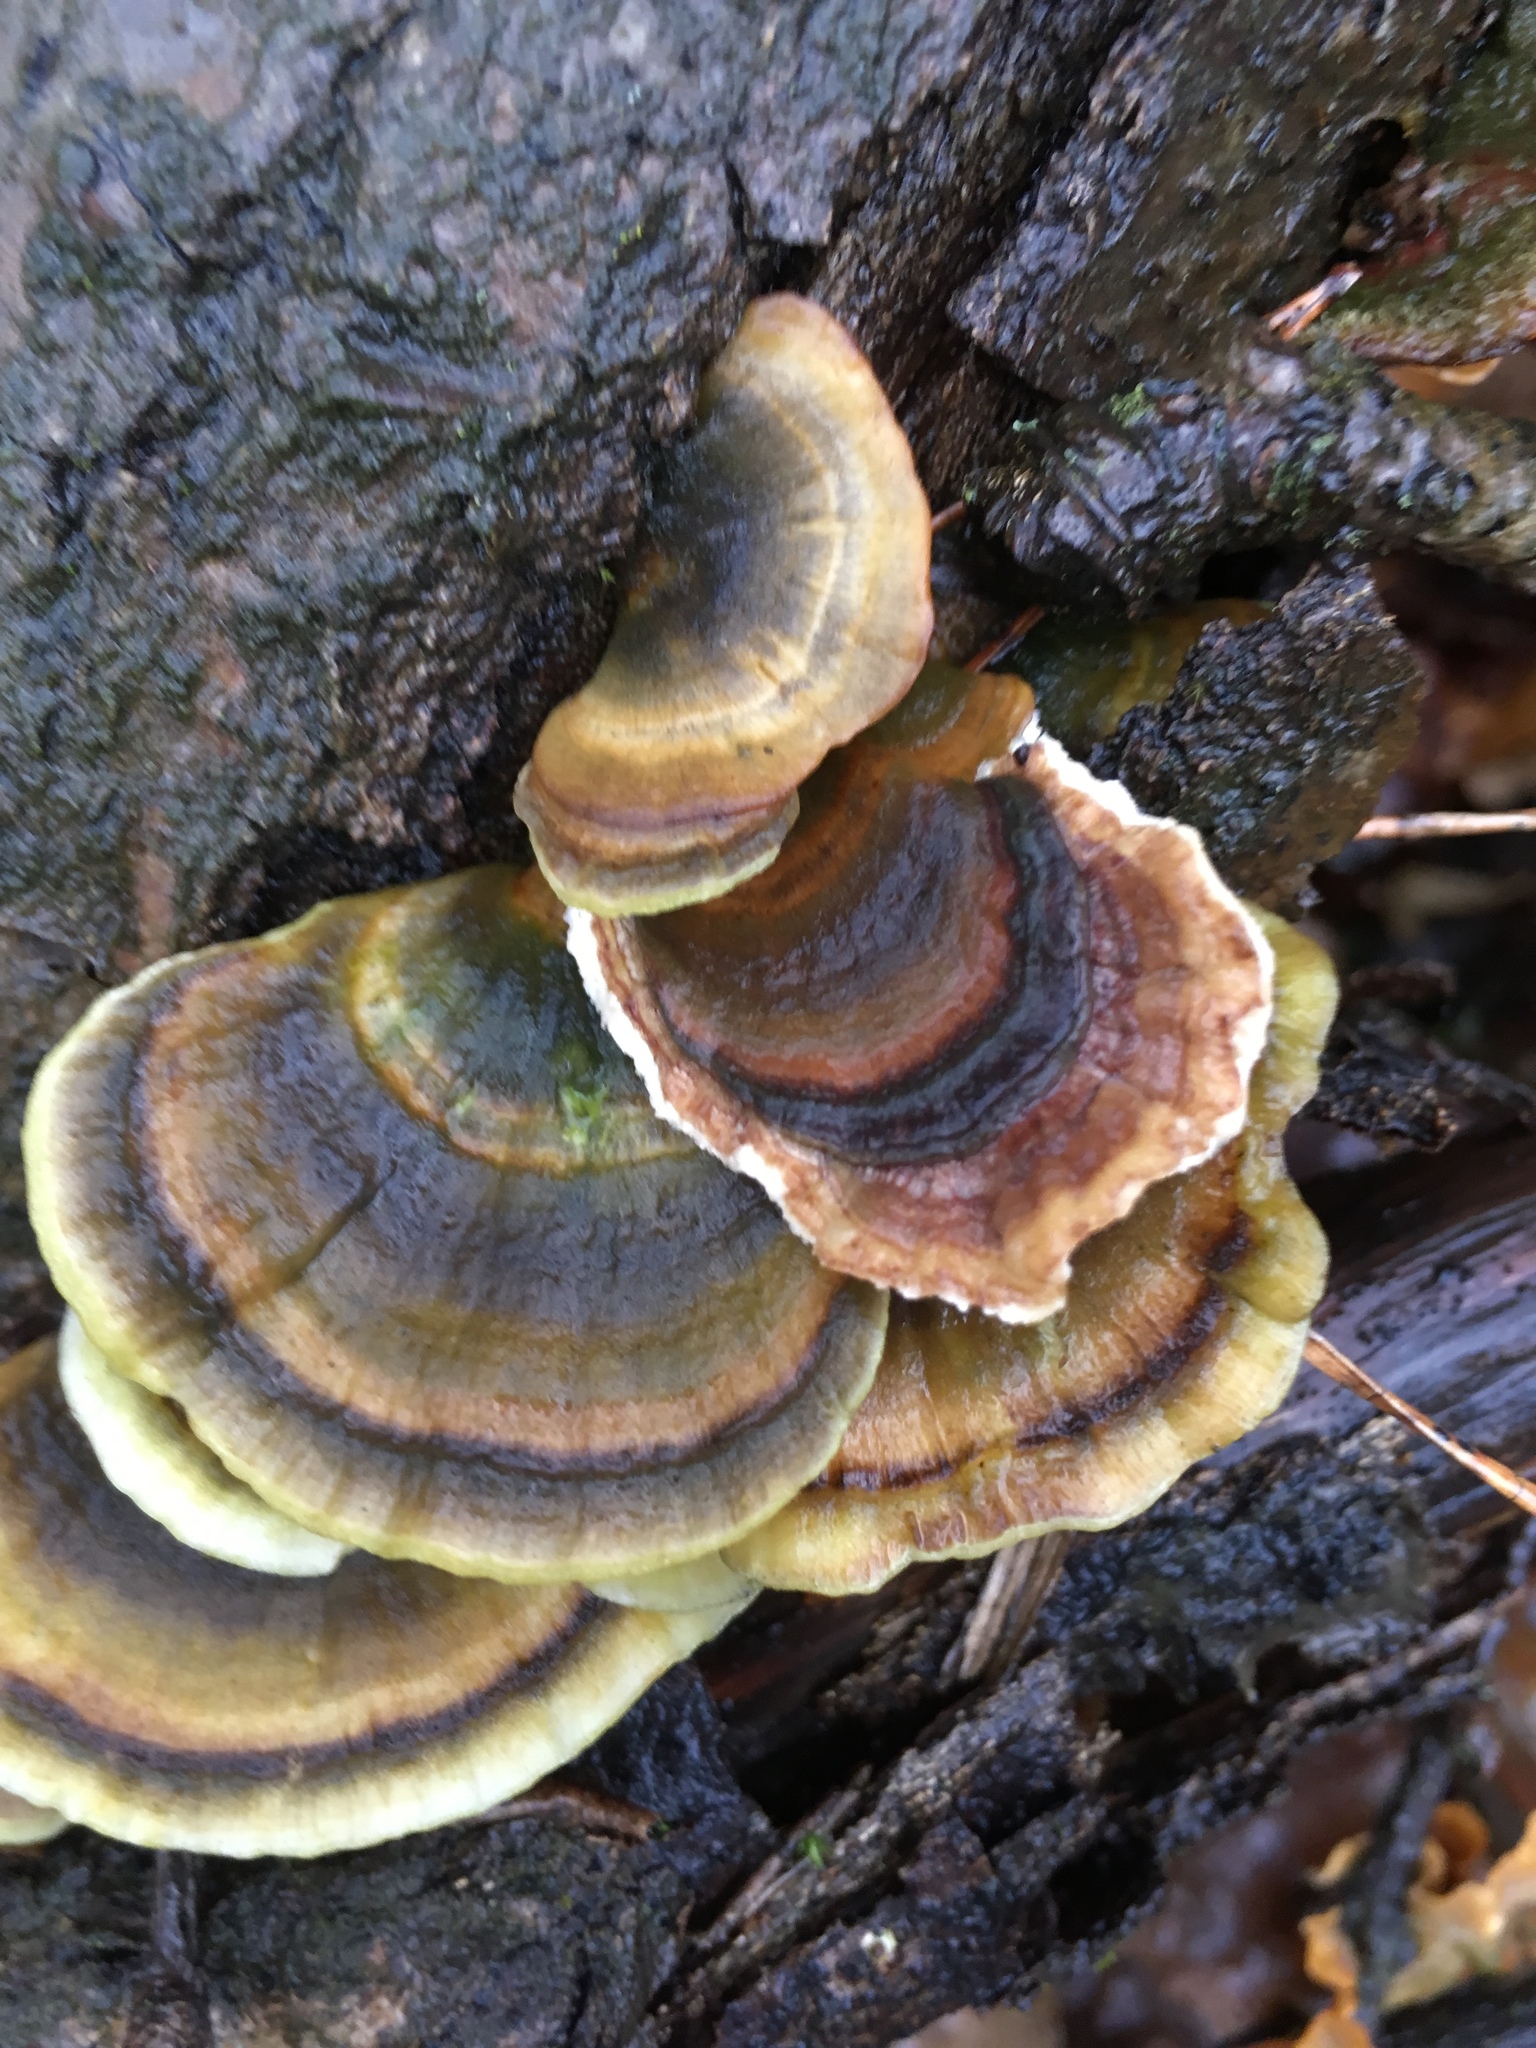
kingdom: Fungi
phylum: Basidiomycota
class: Agaricomycetes
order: Polyporales
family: Polyporaceae
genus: Trametes
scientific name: Trametes versicolor
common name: Turkeytail
